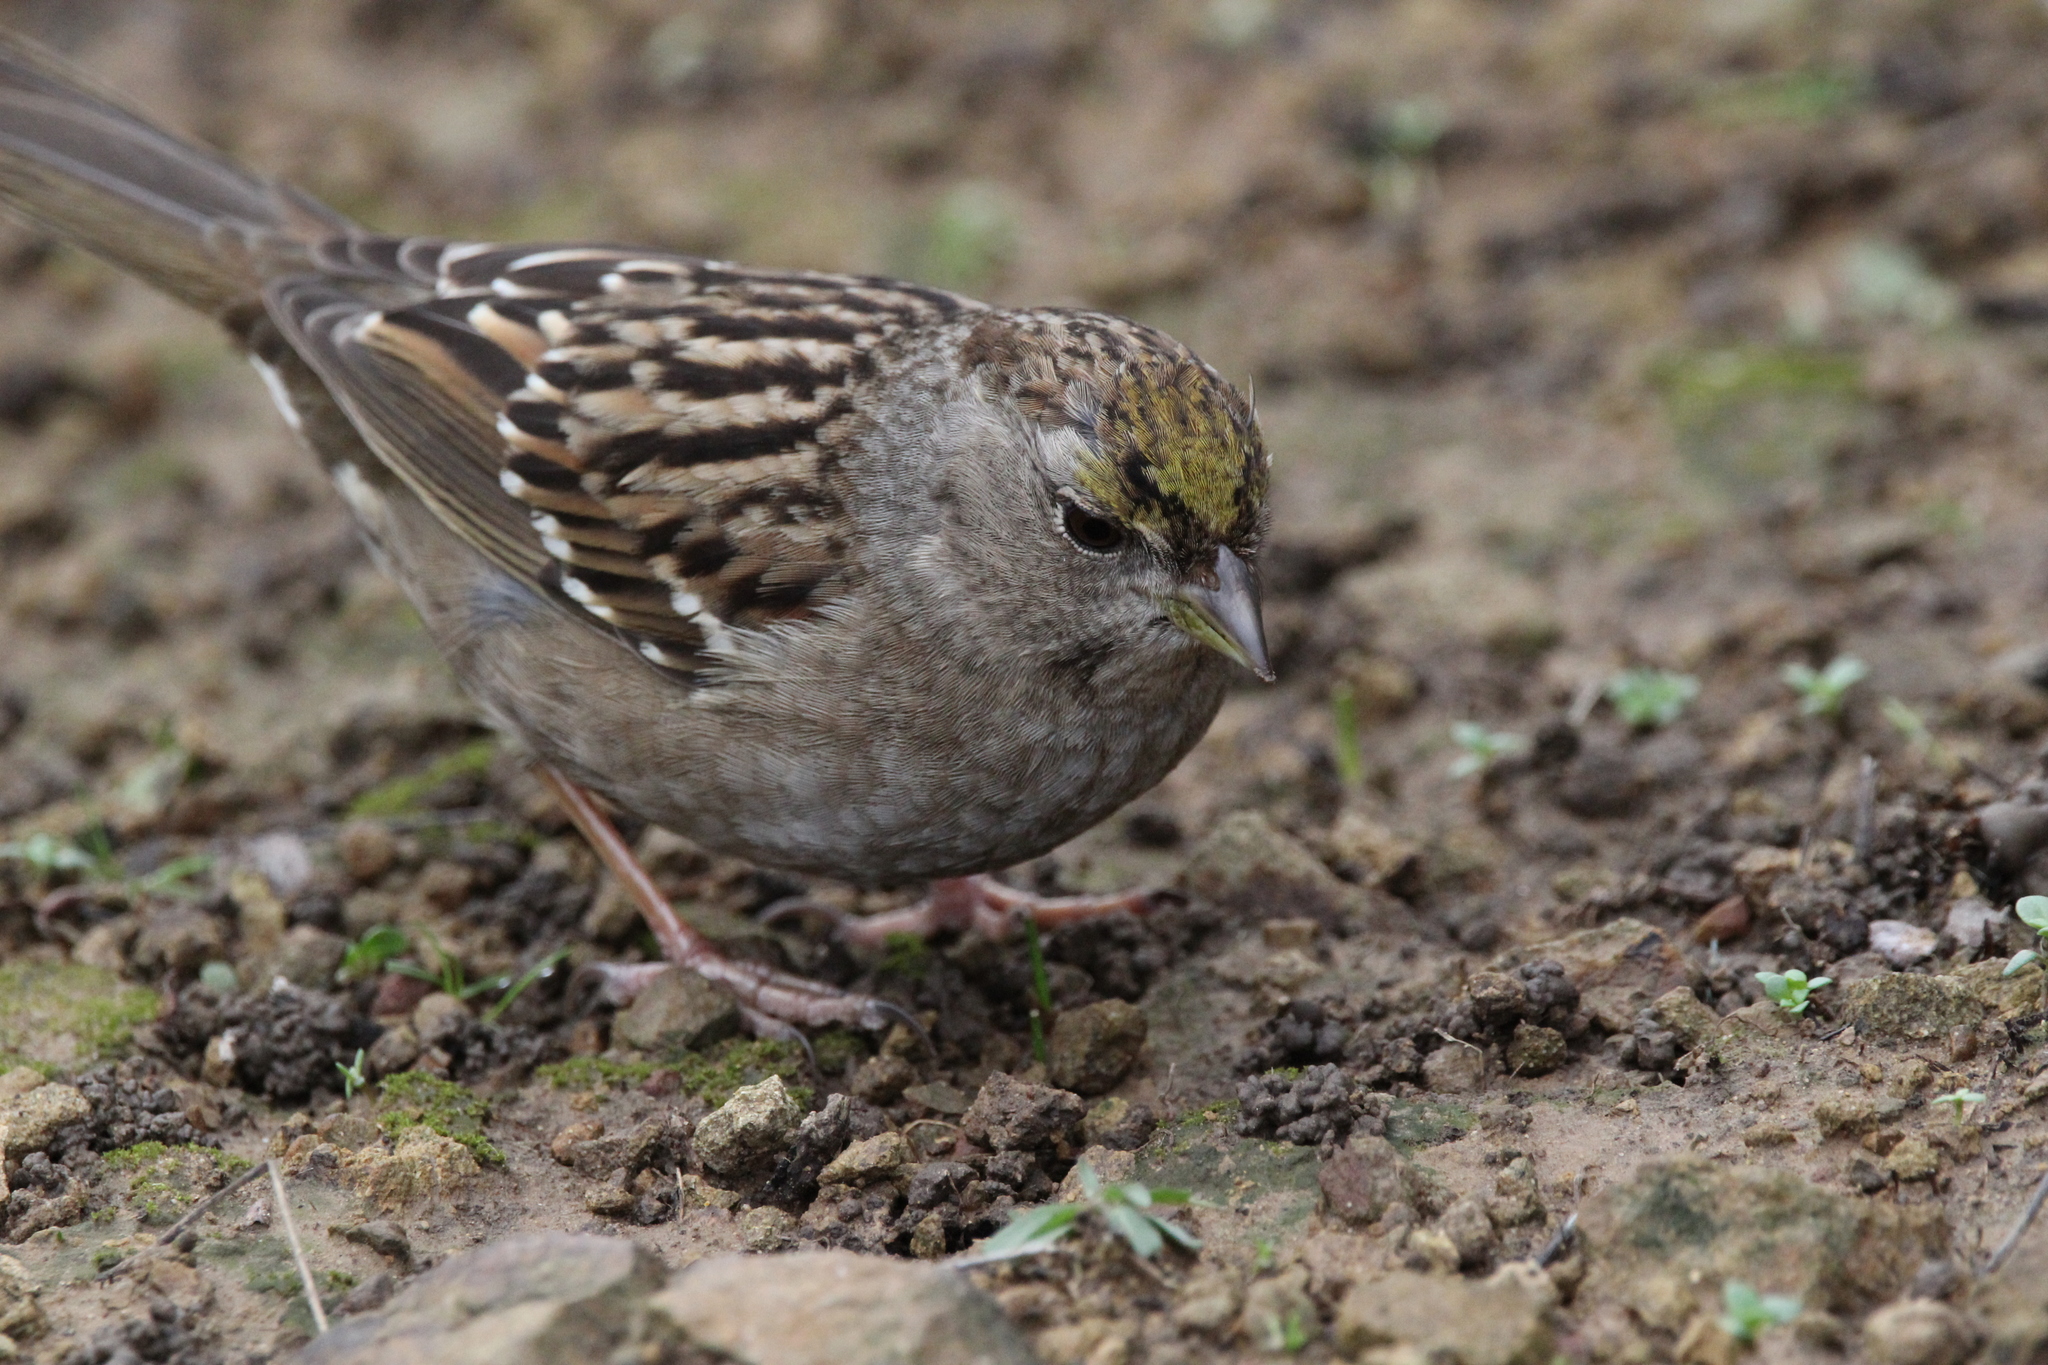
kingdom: Animalia
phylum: Chordata
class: Aves
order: Passeriformes
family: Passerellidae
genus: Zonotrichia
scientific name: Zonotrichia atricapilla
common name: Golden-crowned sparrow
